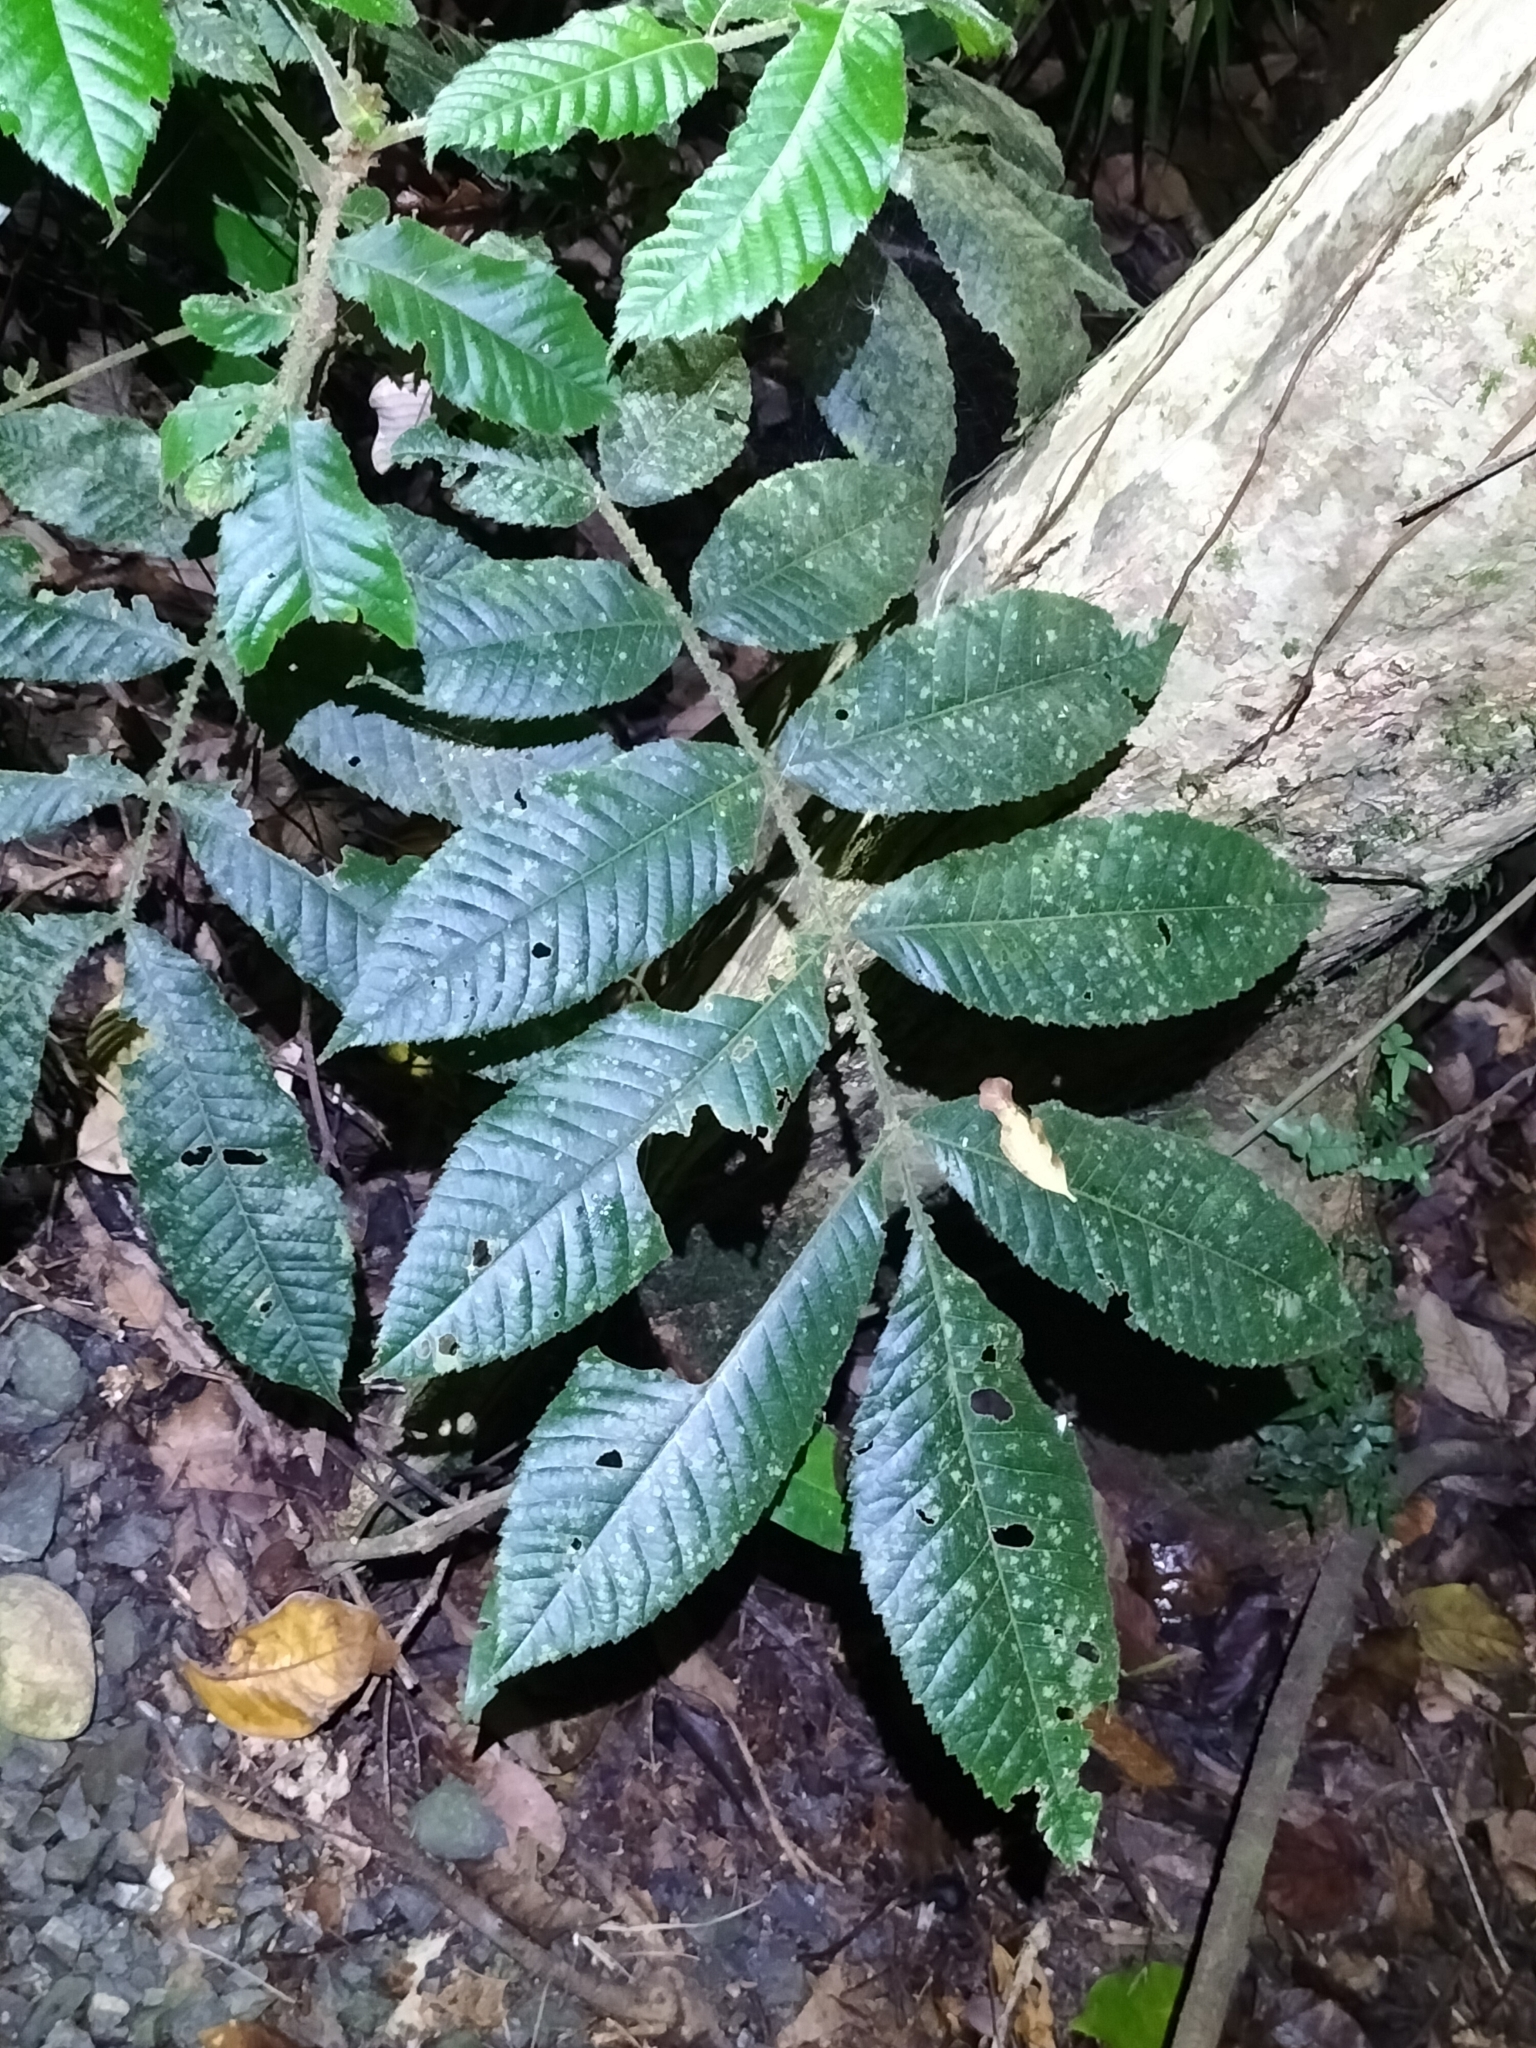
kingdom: Plantae
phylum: Tracheophyta
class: Magnoliopsida
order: Oxalidales
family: Cunoniaceae
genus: Davidsonia
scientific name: Davidsonia pruriens
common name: Do-rog
